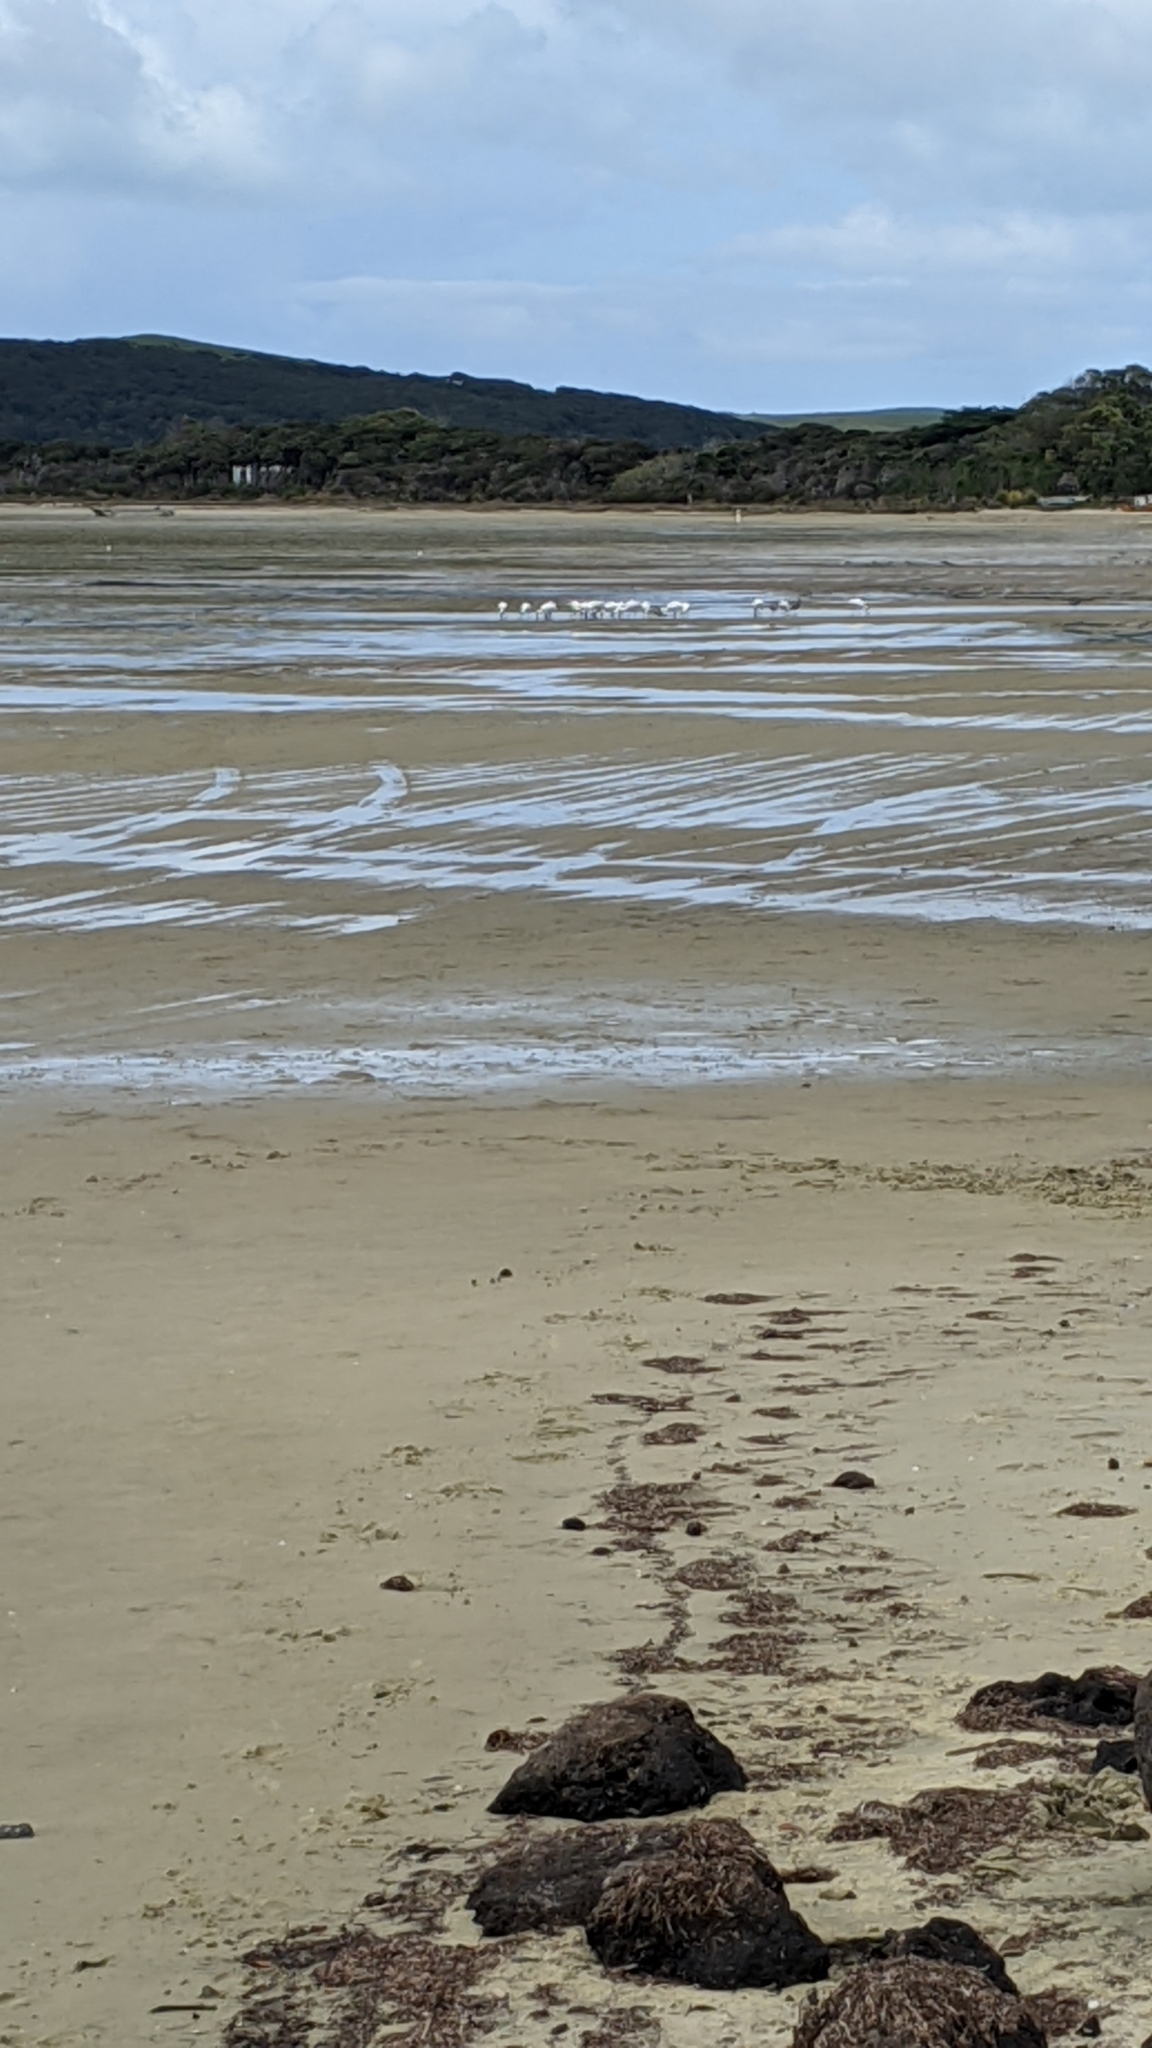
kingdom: Animalia
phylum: Chordata
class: Aves
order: Pelecaniformes
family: Threskiornithidae
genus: Platalea
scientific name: Platalea regia
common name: Royal spoonbill
